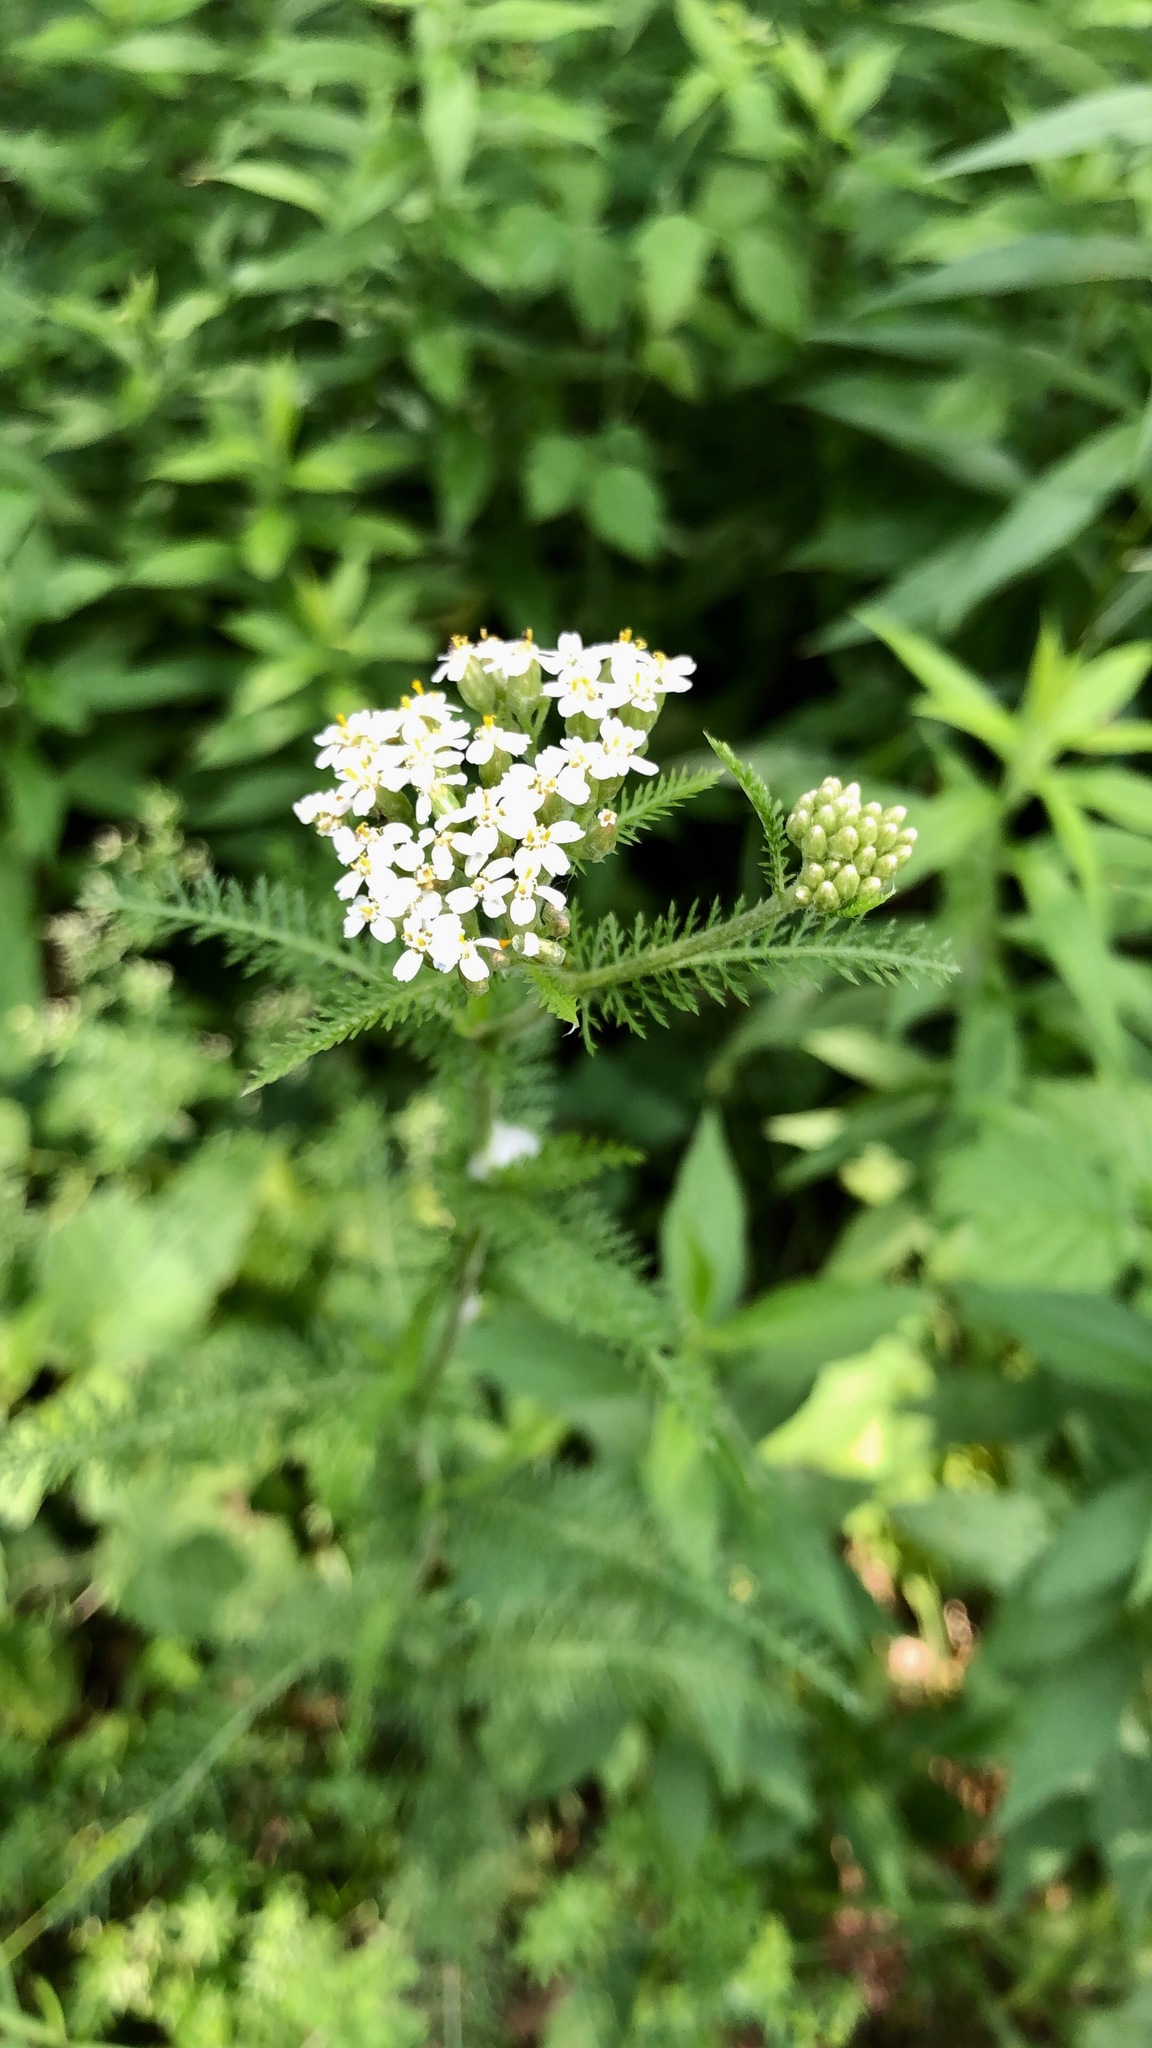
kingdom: Plantae
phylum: Tracheophyta
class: Magnoliopsida
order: Asterales
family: Asteraceae
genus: Achillea
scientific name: Achillea millefolium
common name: Yarrow
